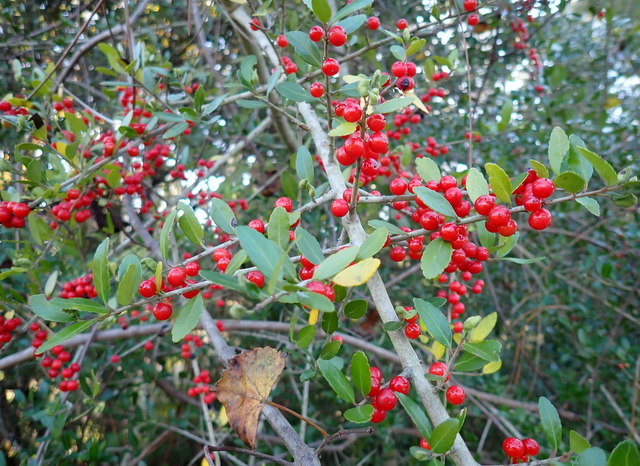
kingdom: Plantae
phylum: Tracheophyta
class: Magnoliopsida
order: Aquifoliales
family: Aquifoliaceae
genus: Ilex
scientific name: Ilex vomitoria
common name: Yaupon holly
